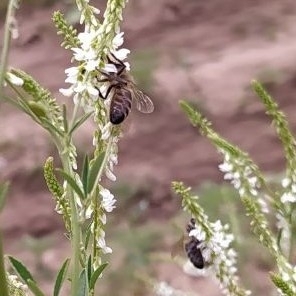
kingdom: Animalia
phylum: Arthropoda
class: Insecta
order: Hymenoptera
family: Apidae
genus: Apis
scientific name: Apis mellifera
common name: Honey bee
